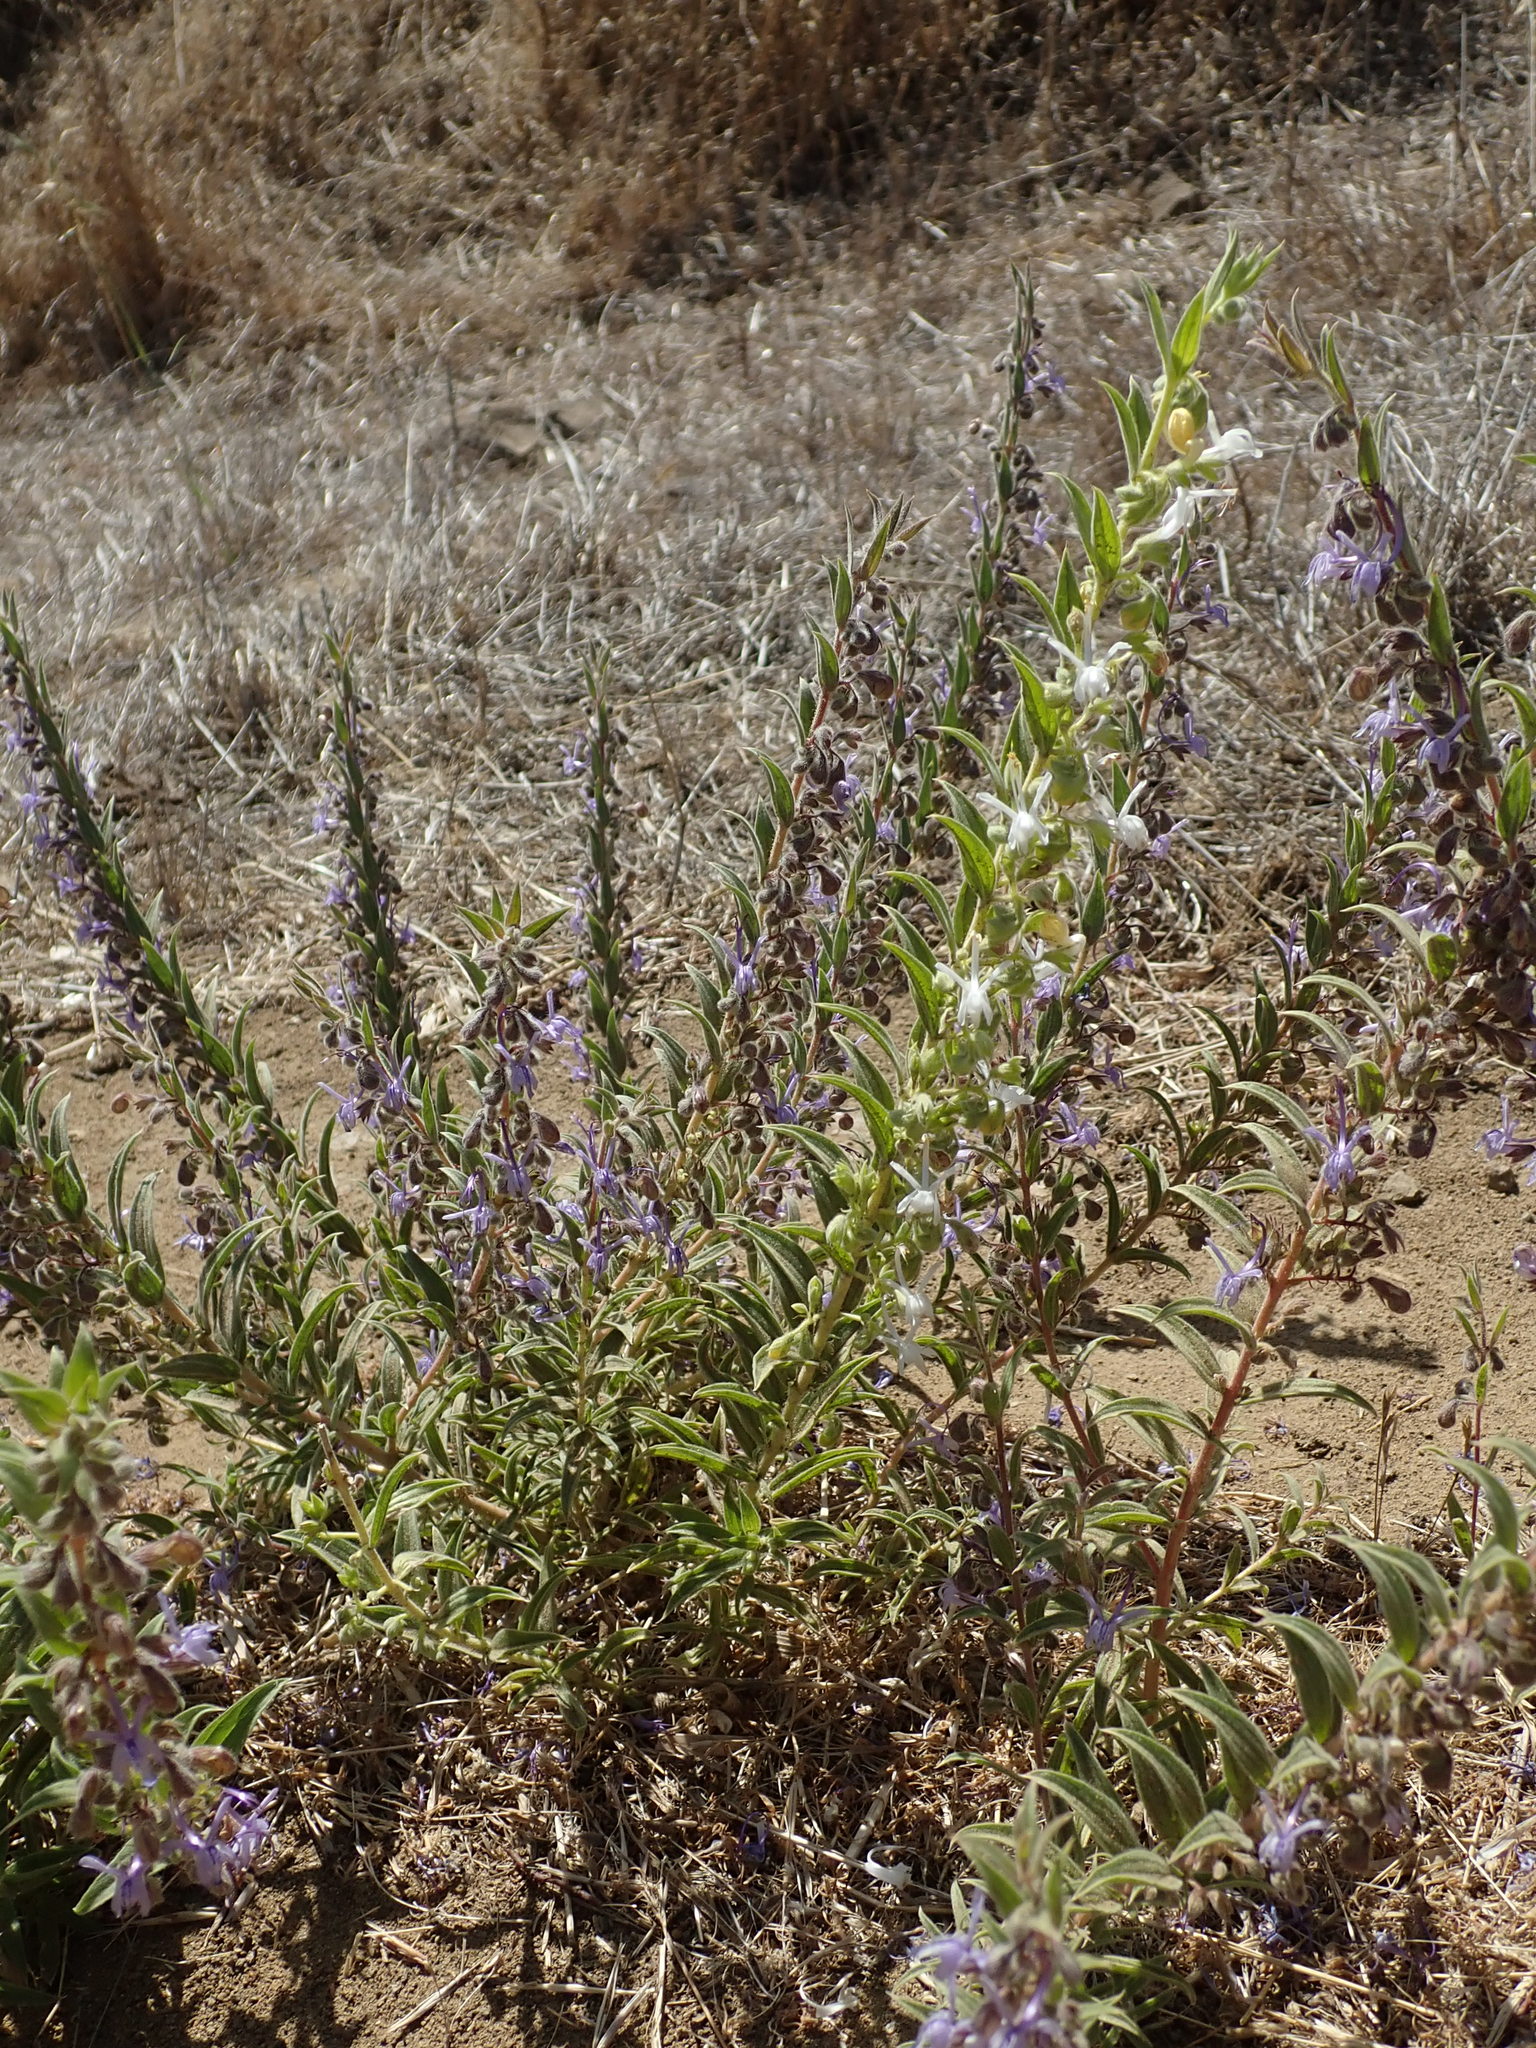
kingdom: Plantae
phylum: Tracheophyta
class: Magnoliopsida
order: Lamiales
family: Lamiaceae
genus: Trichostema
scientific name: Trichostema lanceolatum
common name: Vinegar-weed
